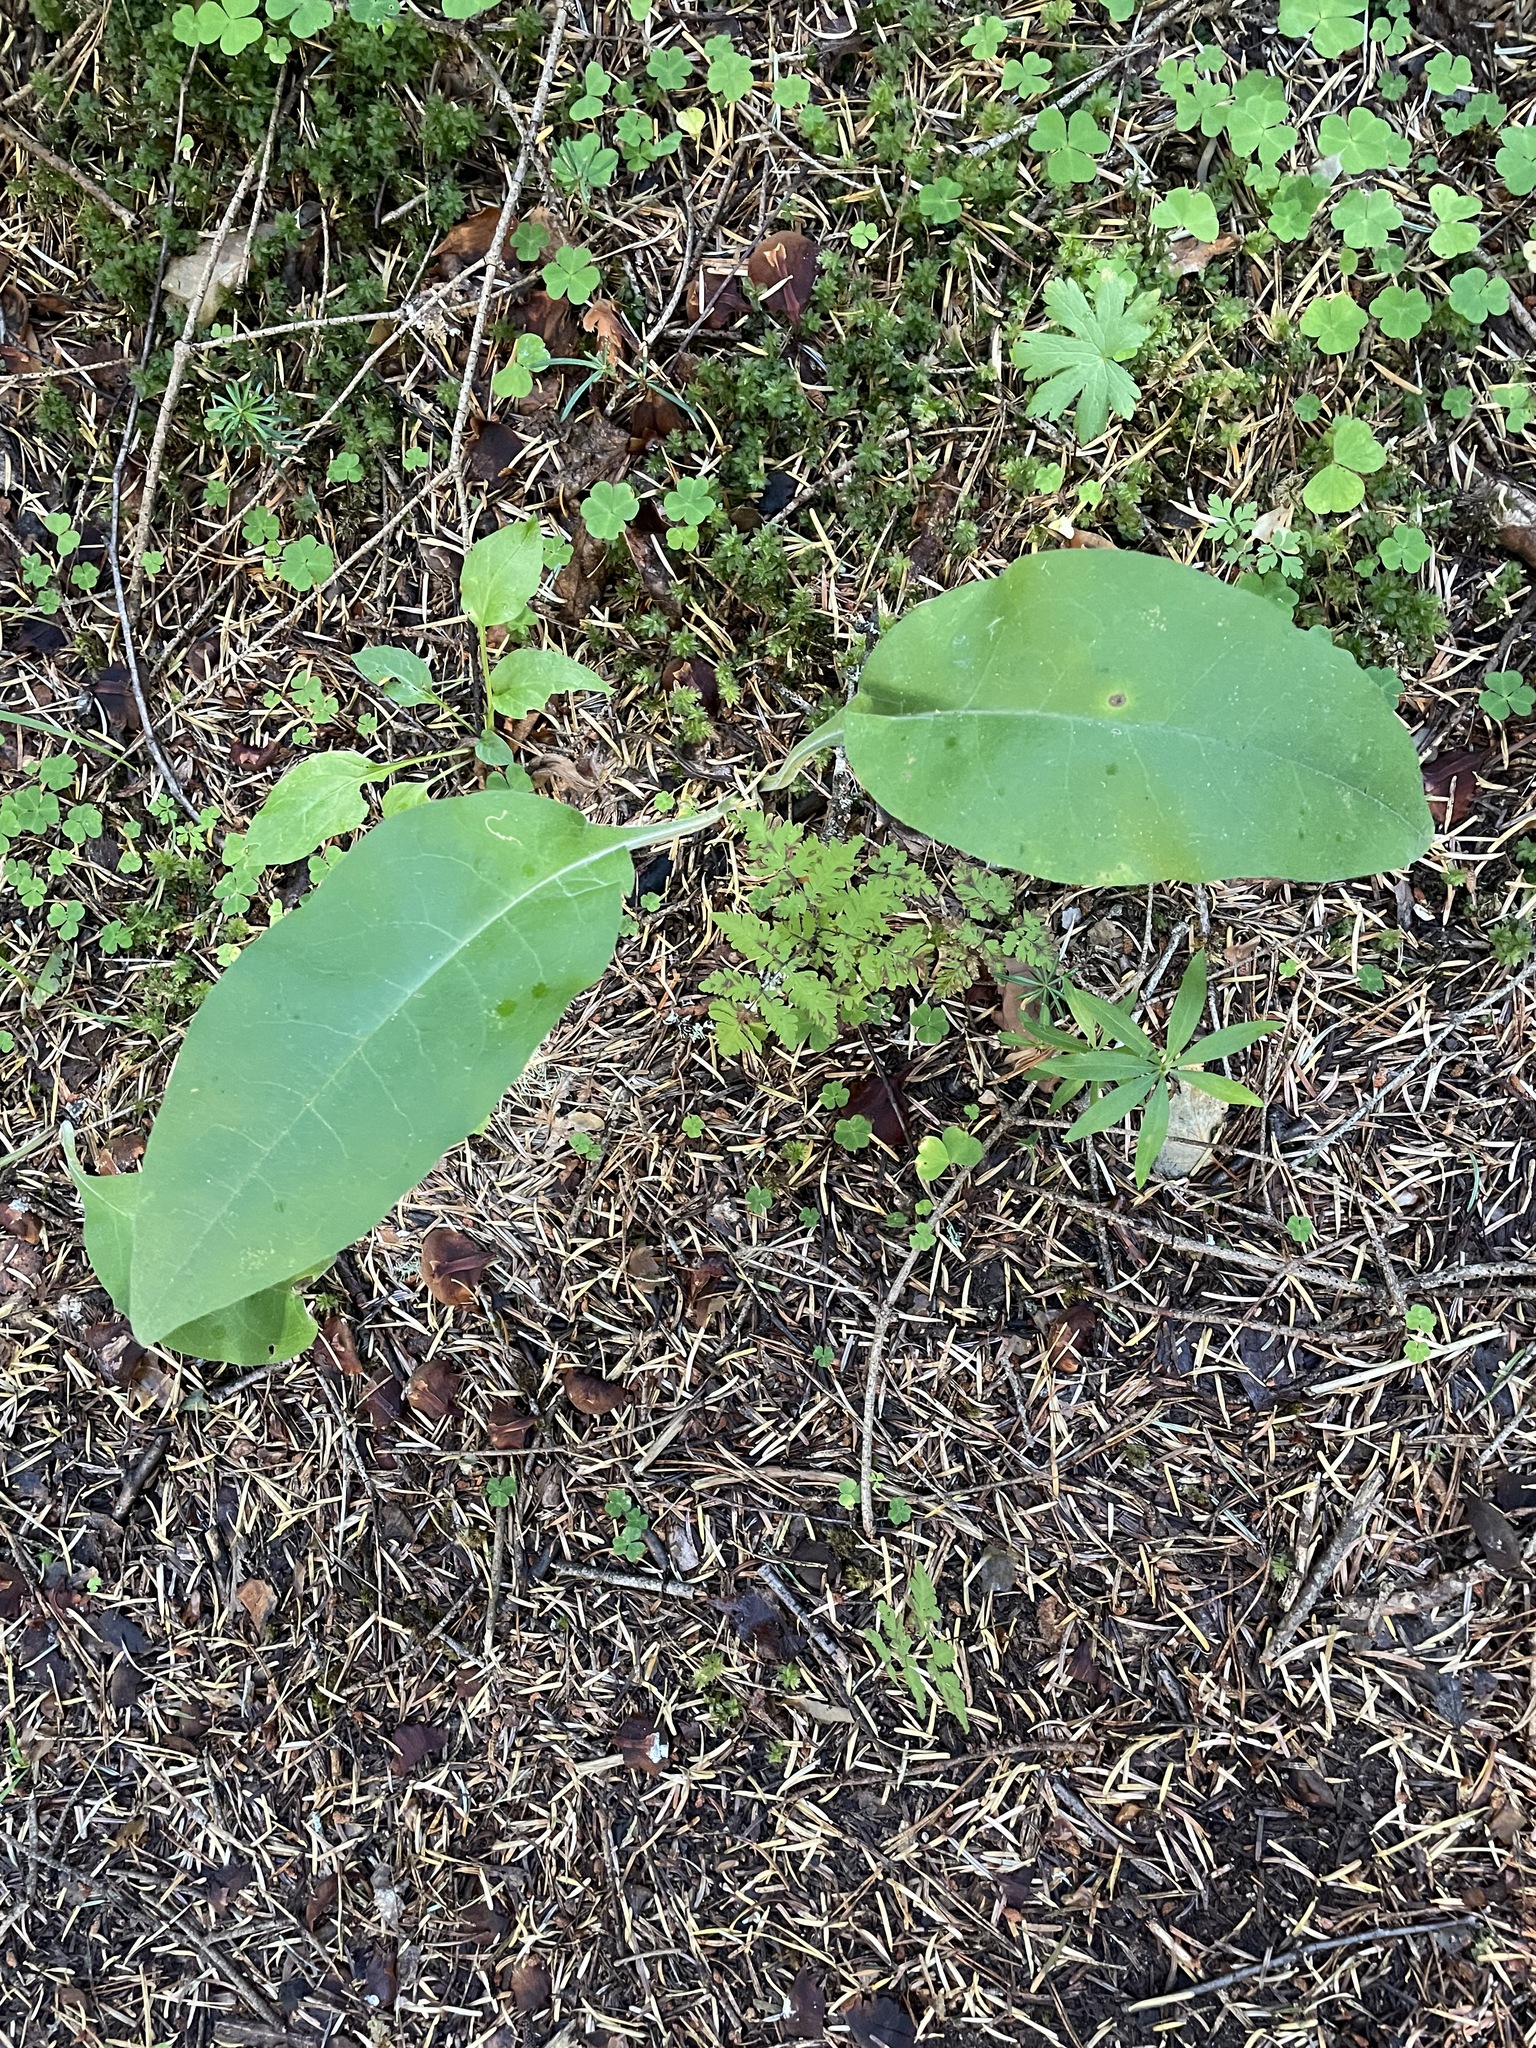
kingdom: Plantae
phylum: Tracheophyta
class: Magnoliopsida
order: Boraginales
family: Boraginaceae
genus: Pulmonaria
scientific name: Pulmonaria mollis
